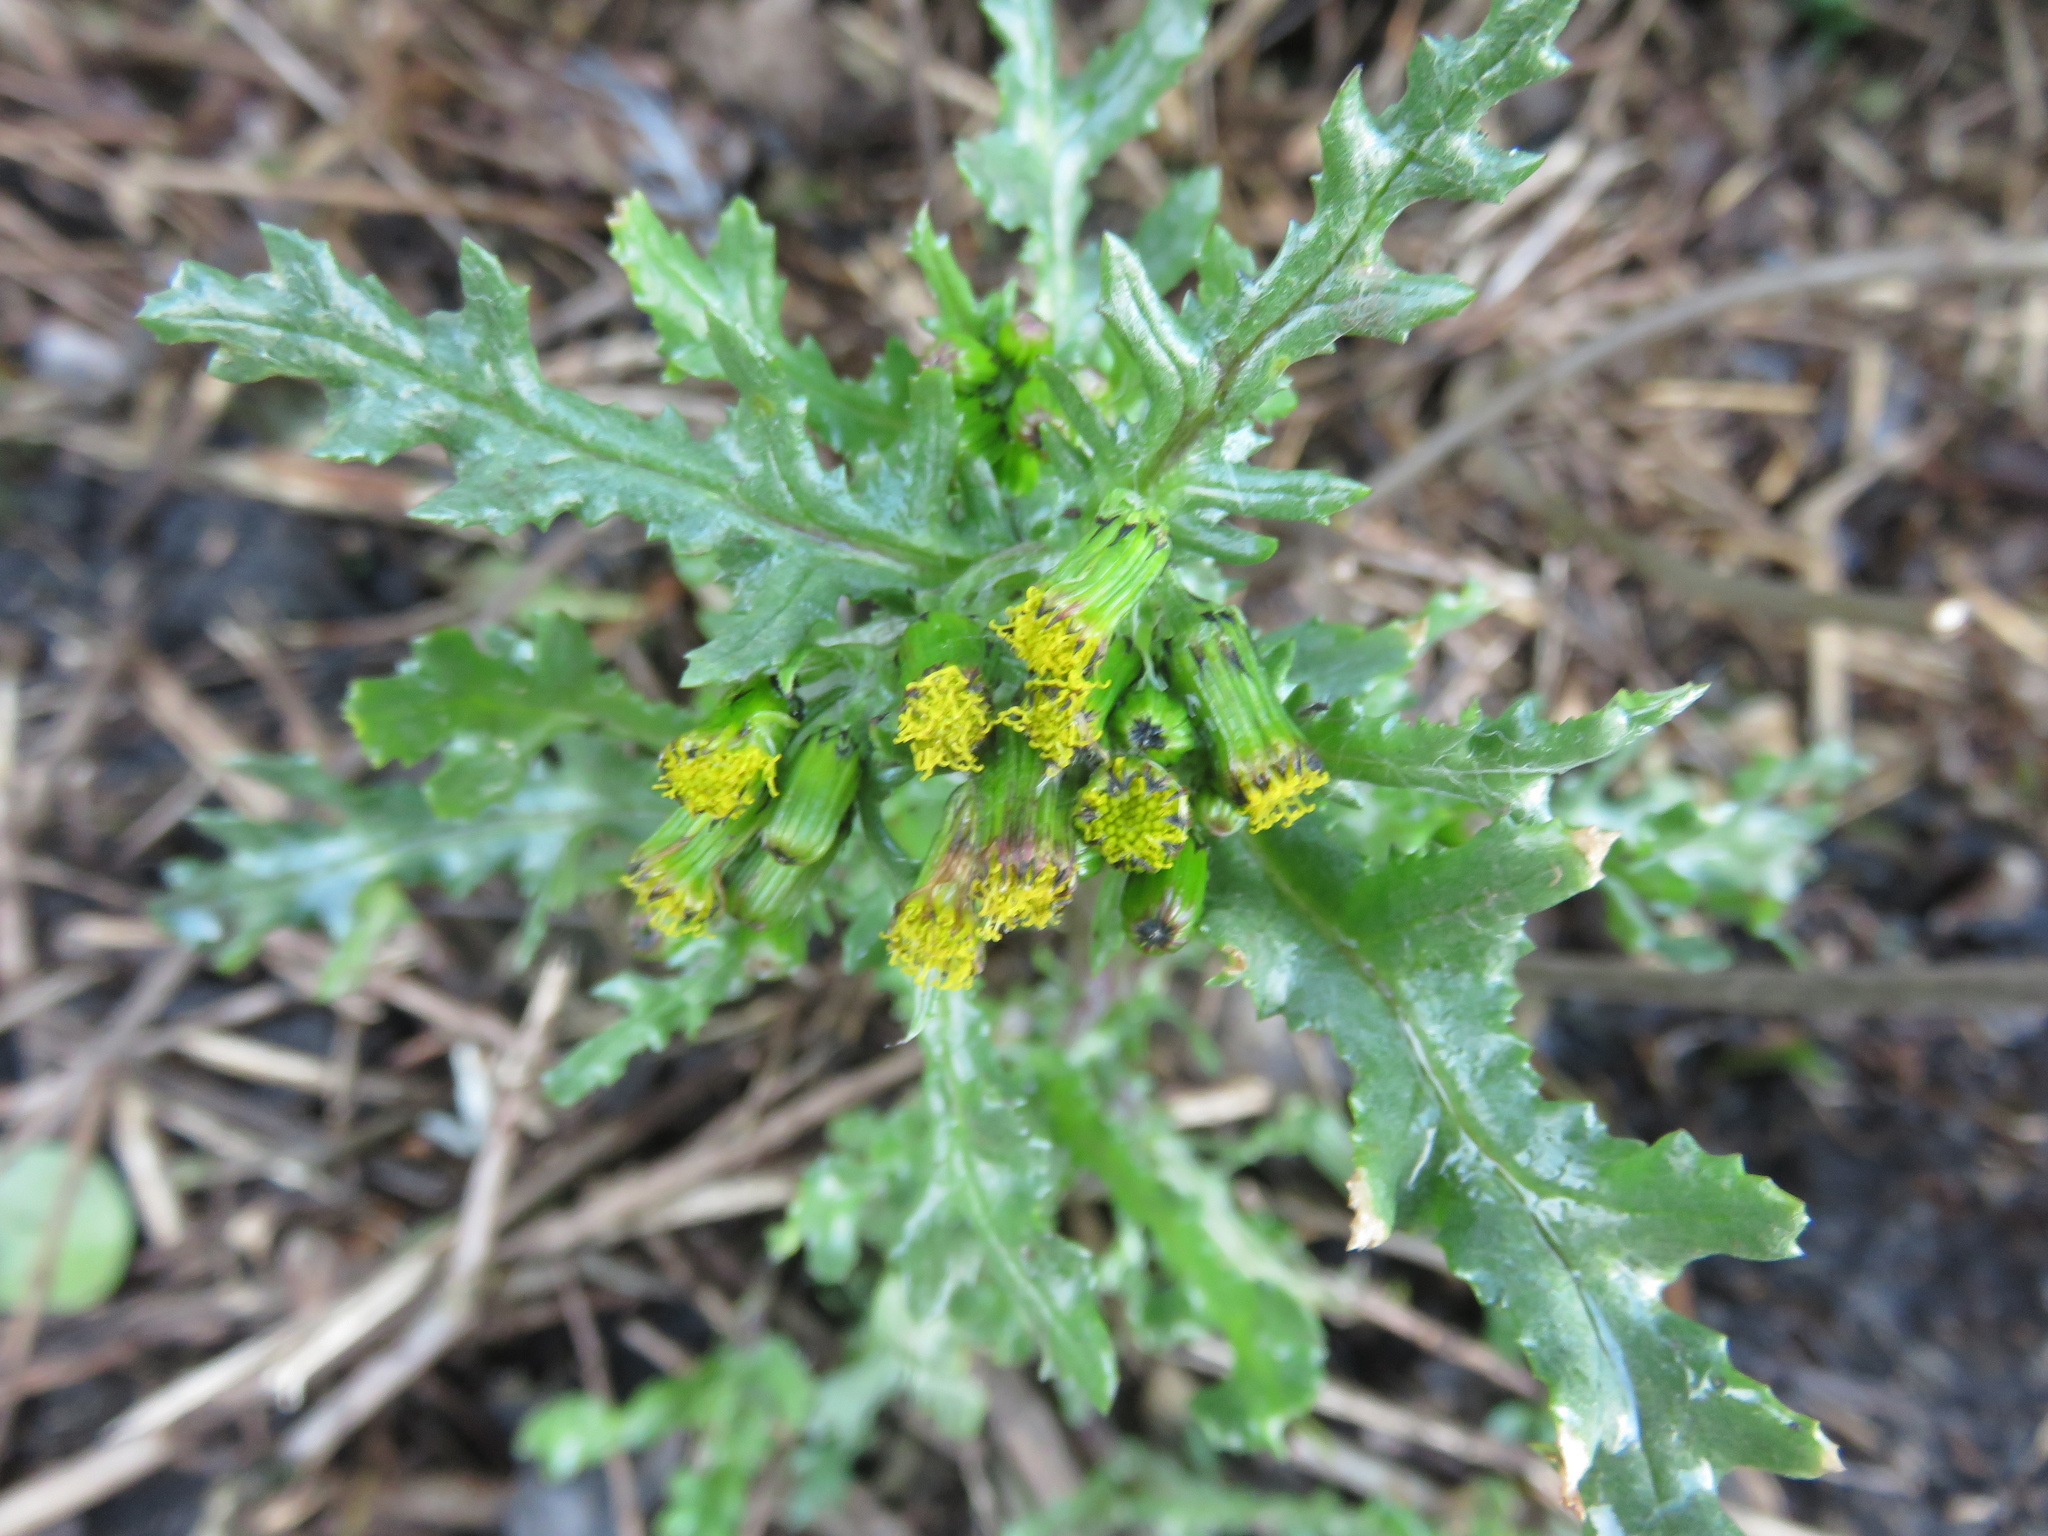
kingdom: Plantae
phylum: Tracheophyta
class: Magnoliopsida
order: Asterales
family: Asteraceae
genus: Senecio
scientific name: Senecio vulgaris
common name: Old-man-in-the-spring
